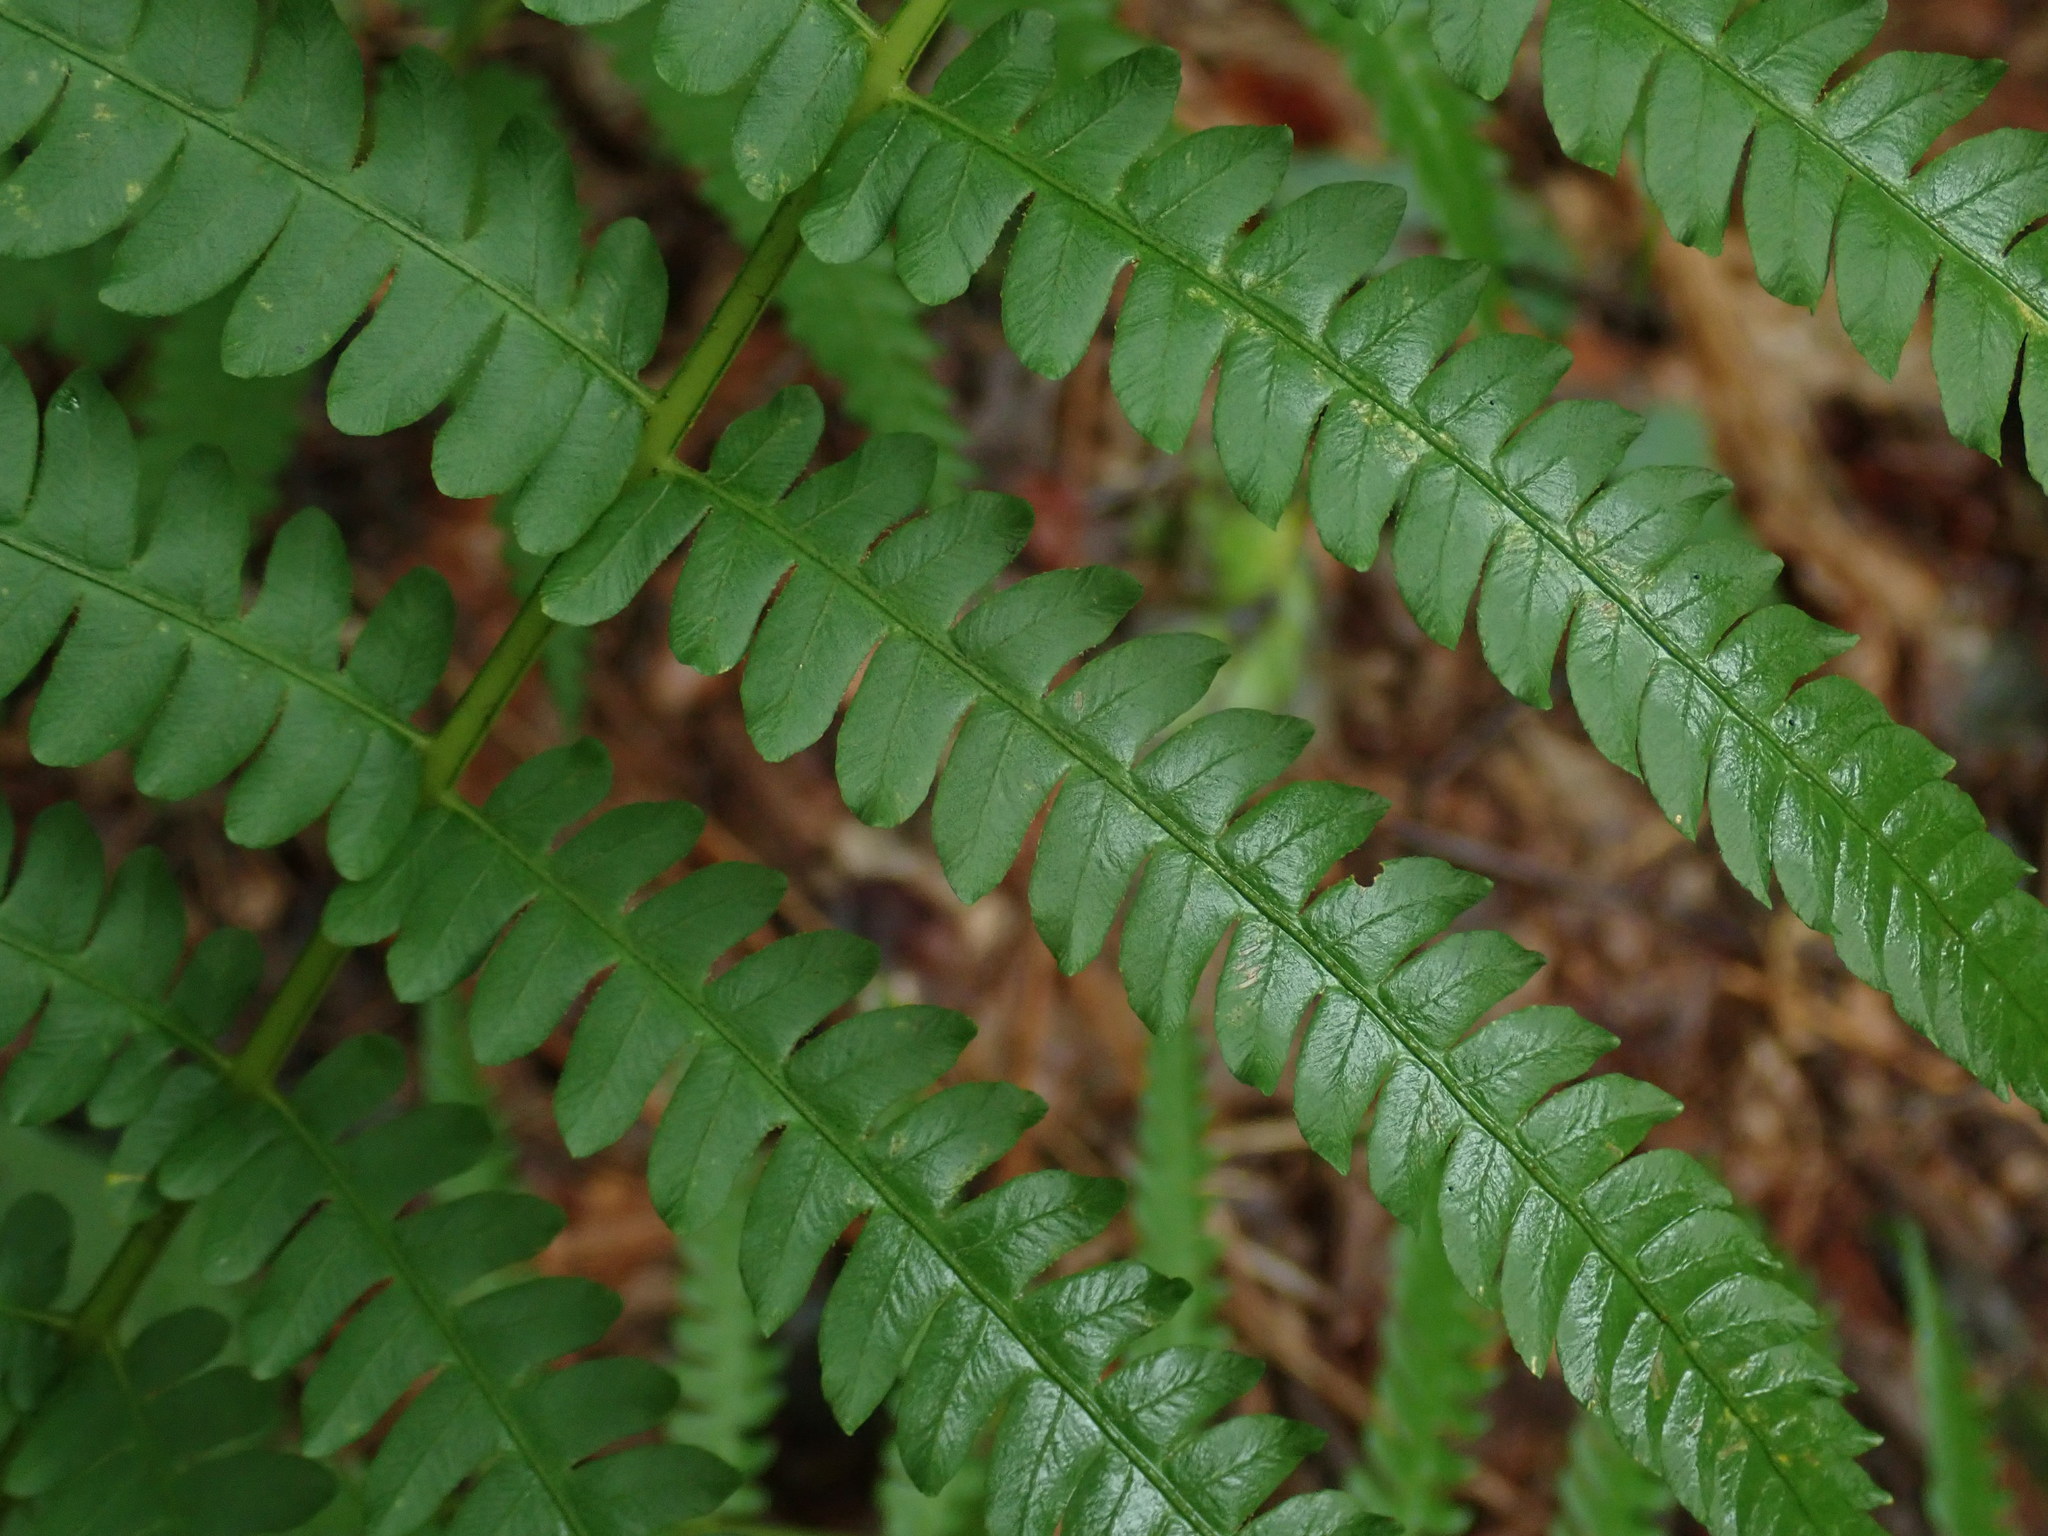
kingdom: Plantae
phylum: Tracheophyta
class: Polypodiopsida
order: Osmundales
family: Osmundaceae
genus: Osmundastrum
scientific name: Osmundastrum cinnamomeum
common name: Cinnamon fern
